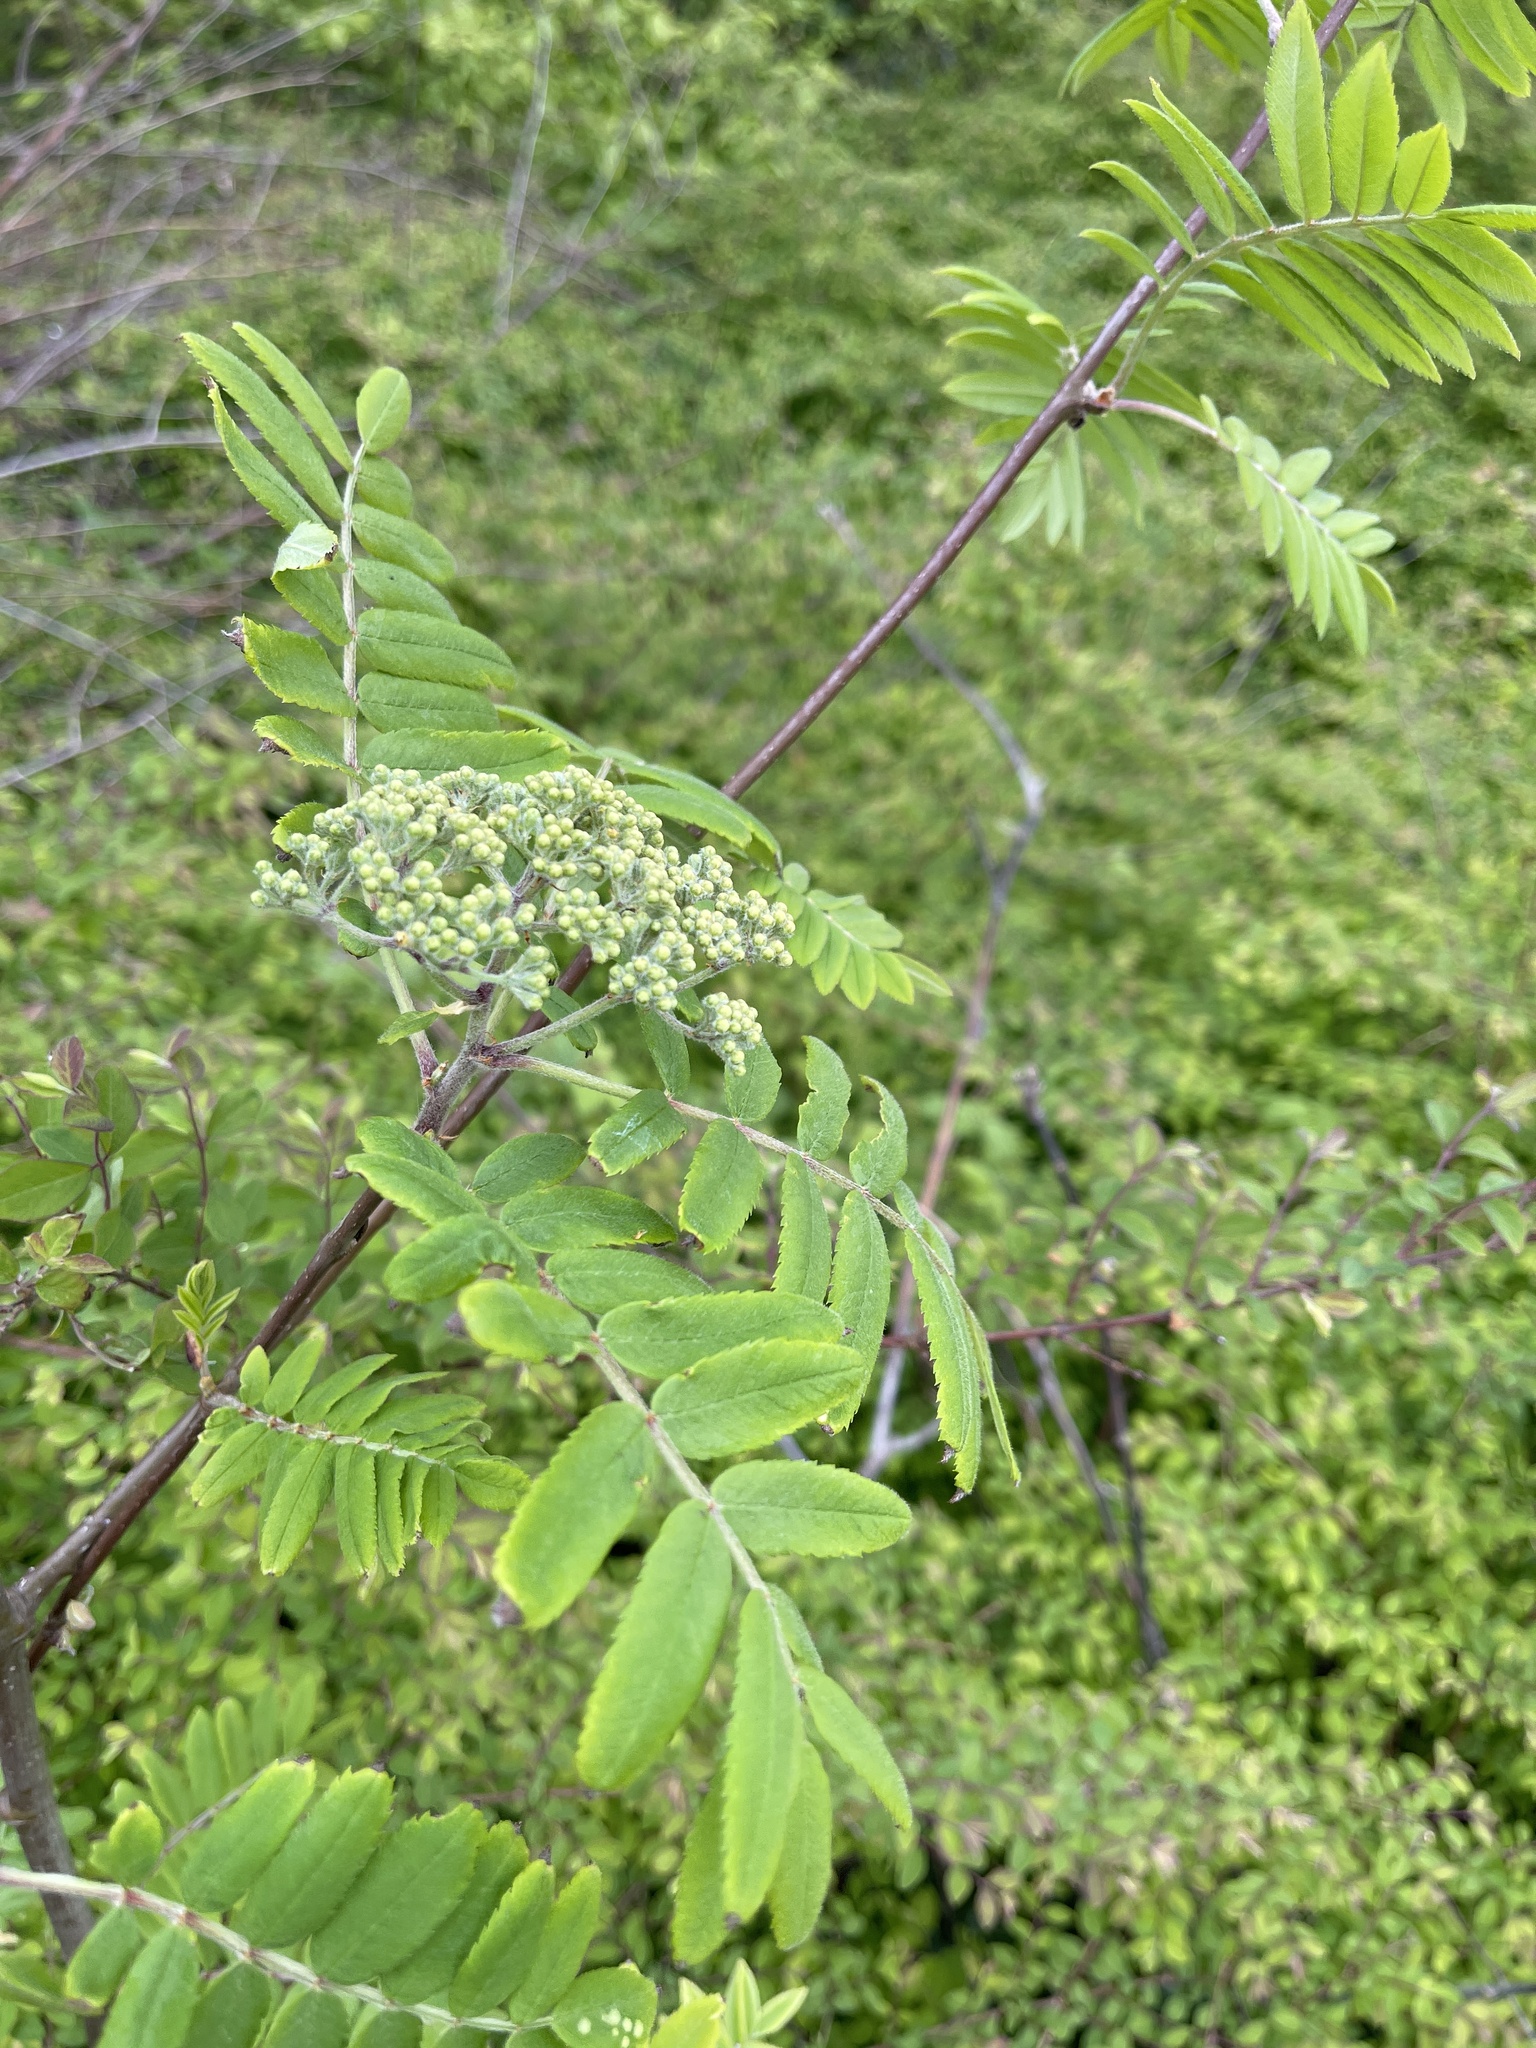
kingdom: Plantae
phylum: Tracheophyta
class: Magnoliopsida
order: Rosales
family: Rosaceae
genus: Sorbus
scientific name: Sorbus aucuparia
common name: Rowan
